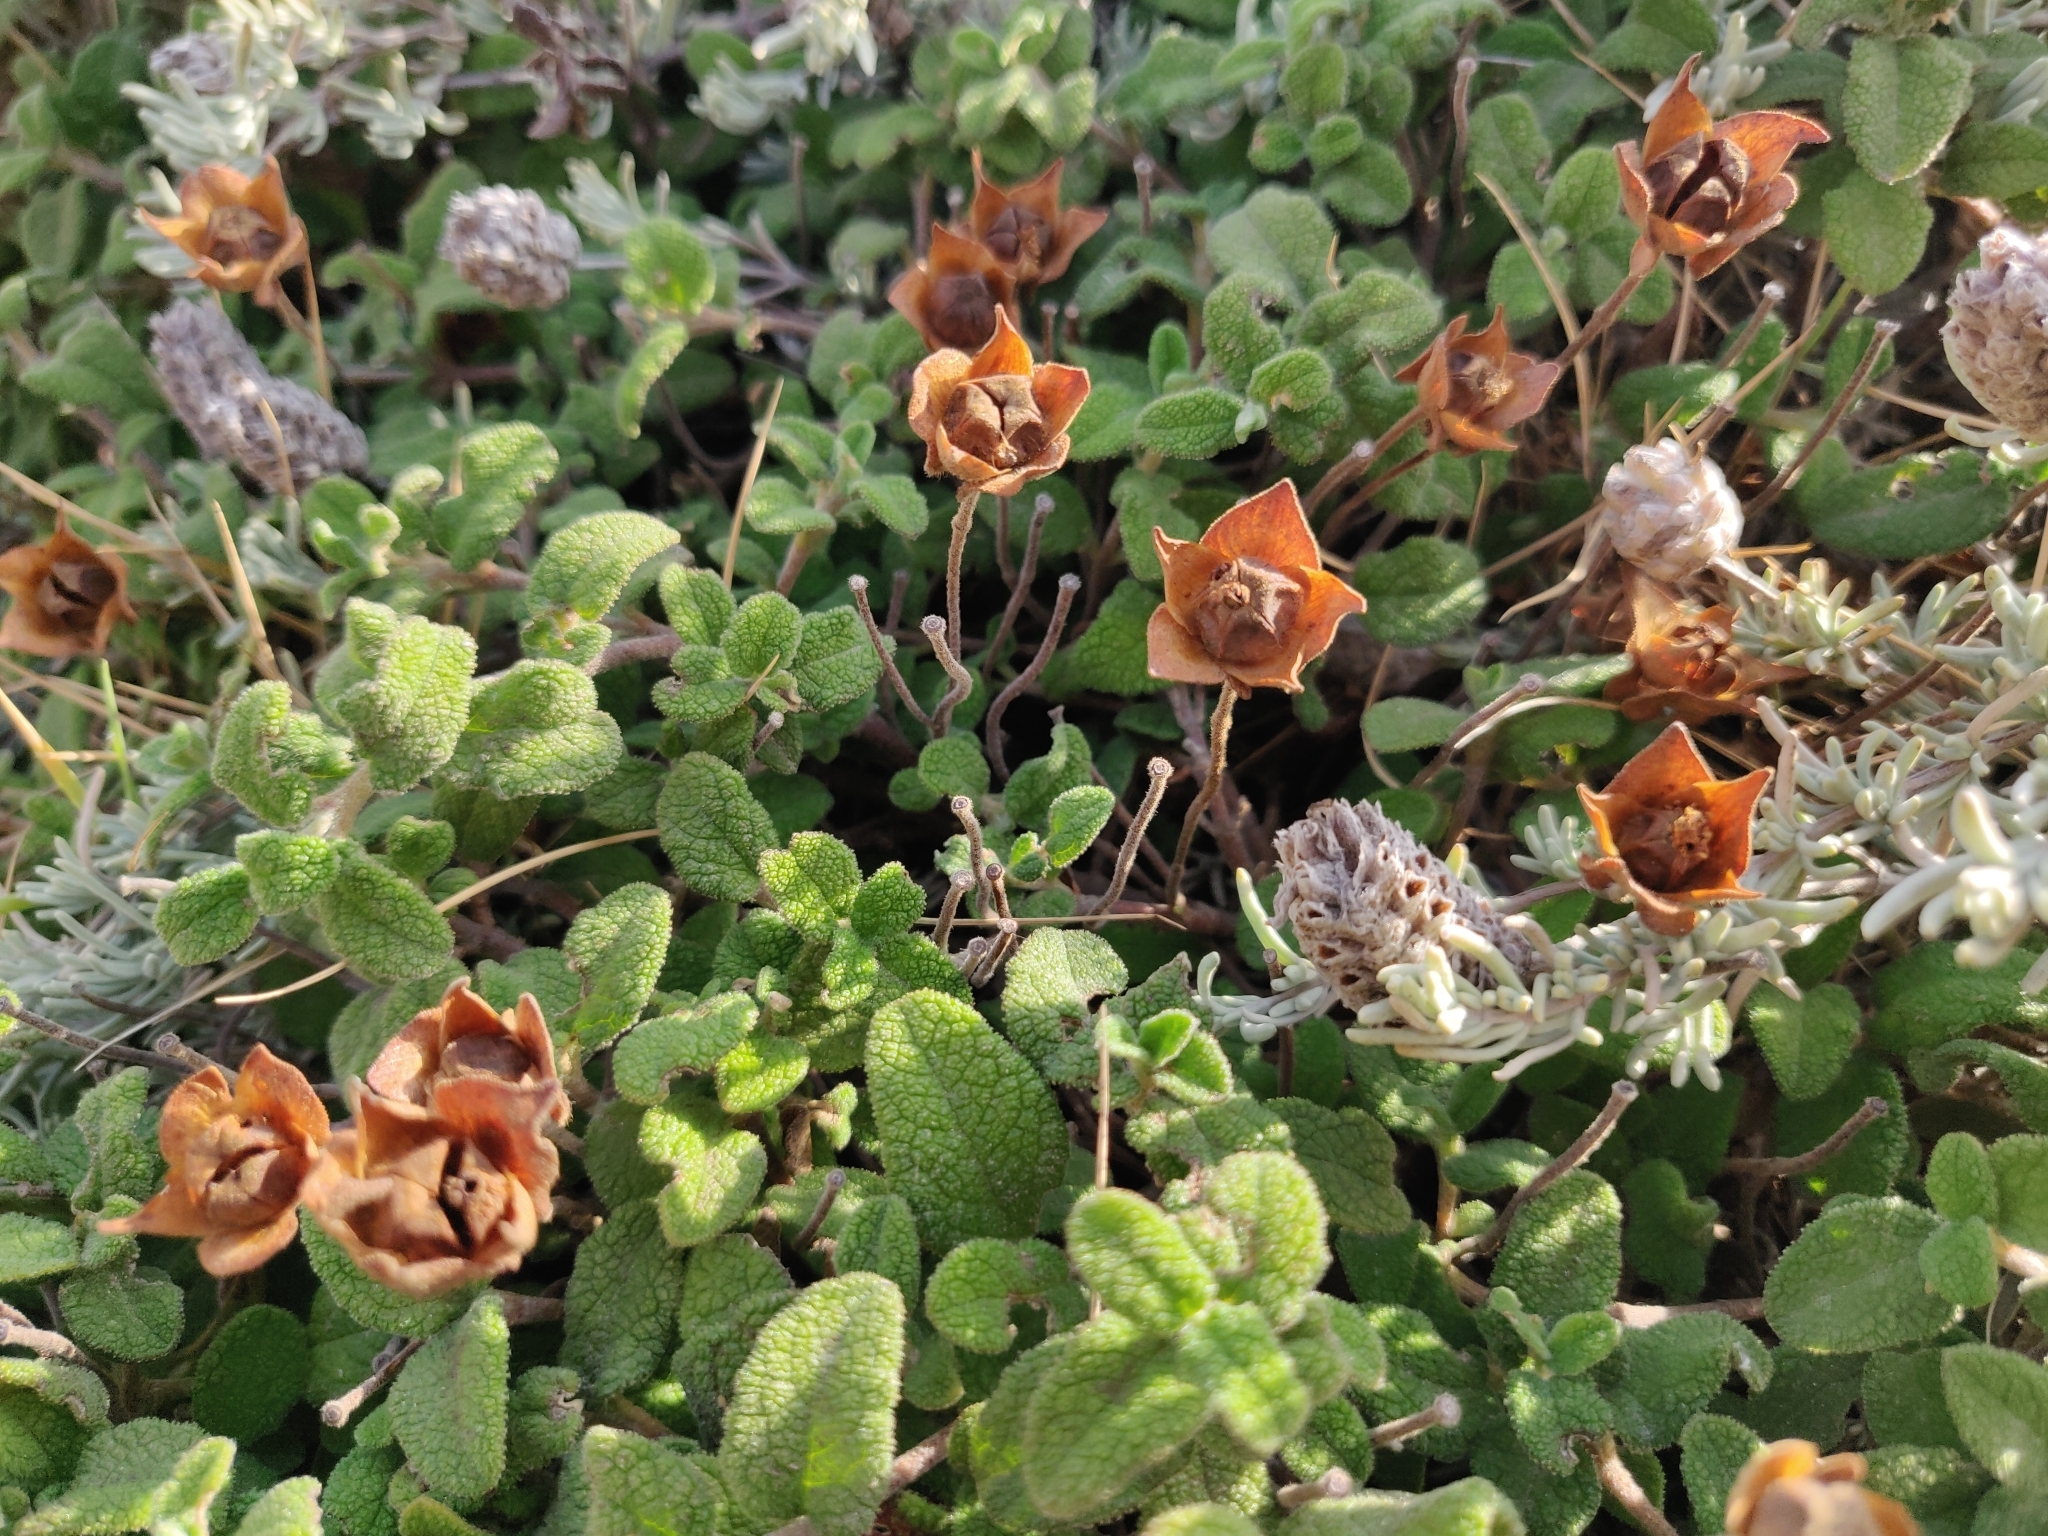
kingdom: Plantae
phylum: Tracheophyta
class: Magnoliopsida
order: Malvales
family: Cistaceae
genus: Cistus
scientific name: Cistus salviifolius
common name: Salvia cistus
